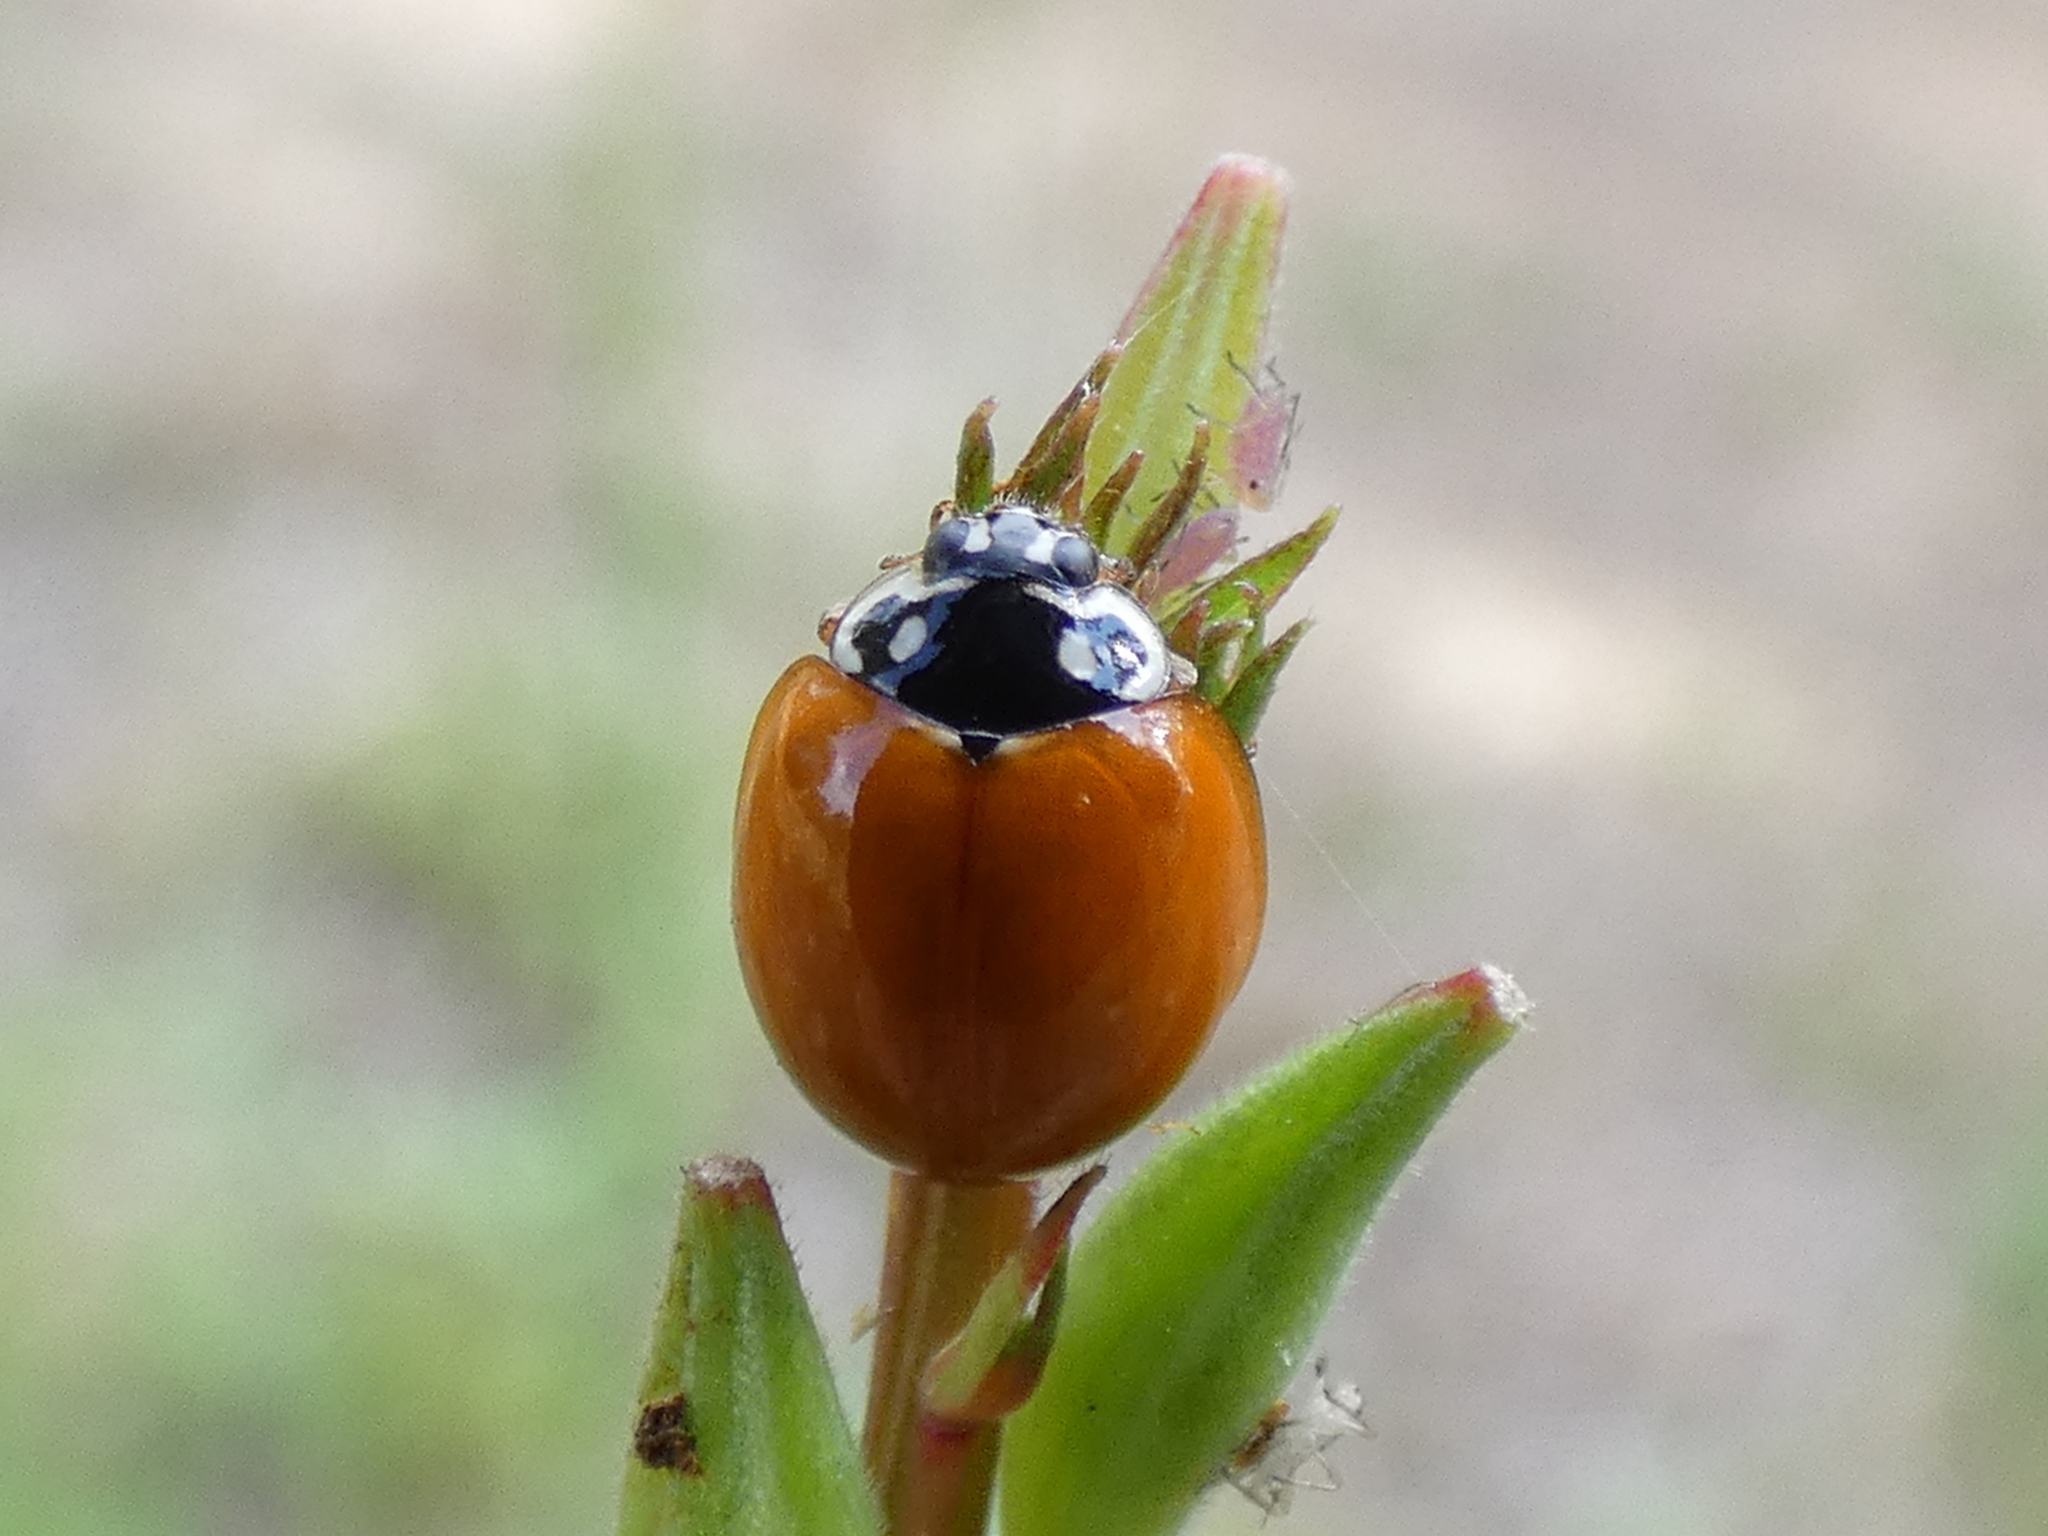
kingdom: Animalia
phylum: Arthropoda
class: Insecta
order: Coleoptera
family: Coccinellidae
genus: Cycloneda
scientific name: Cycloneda sanguinea
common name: Ladybird beetle
